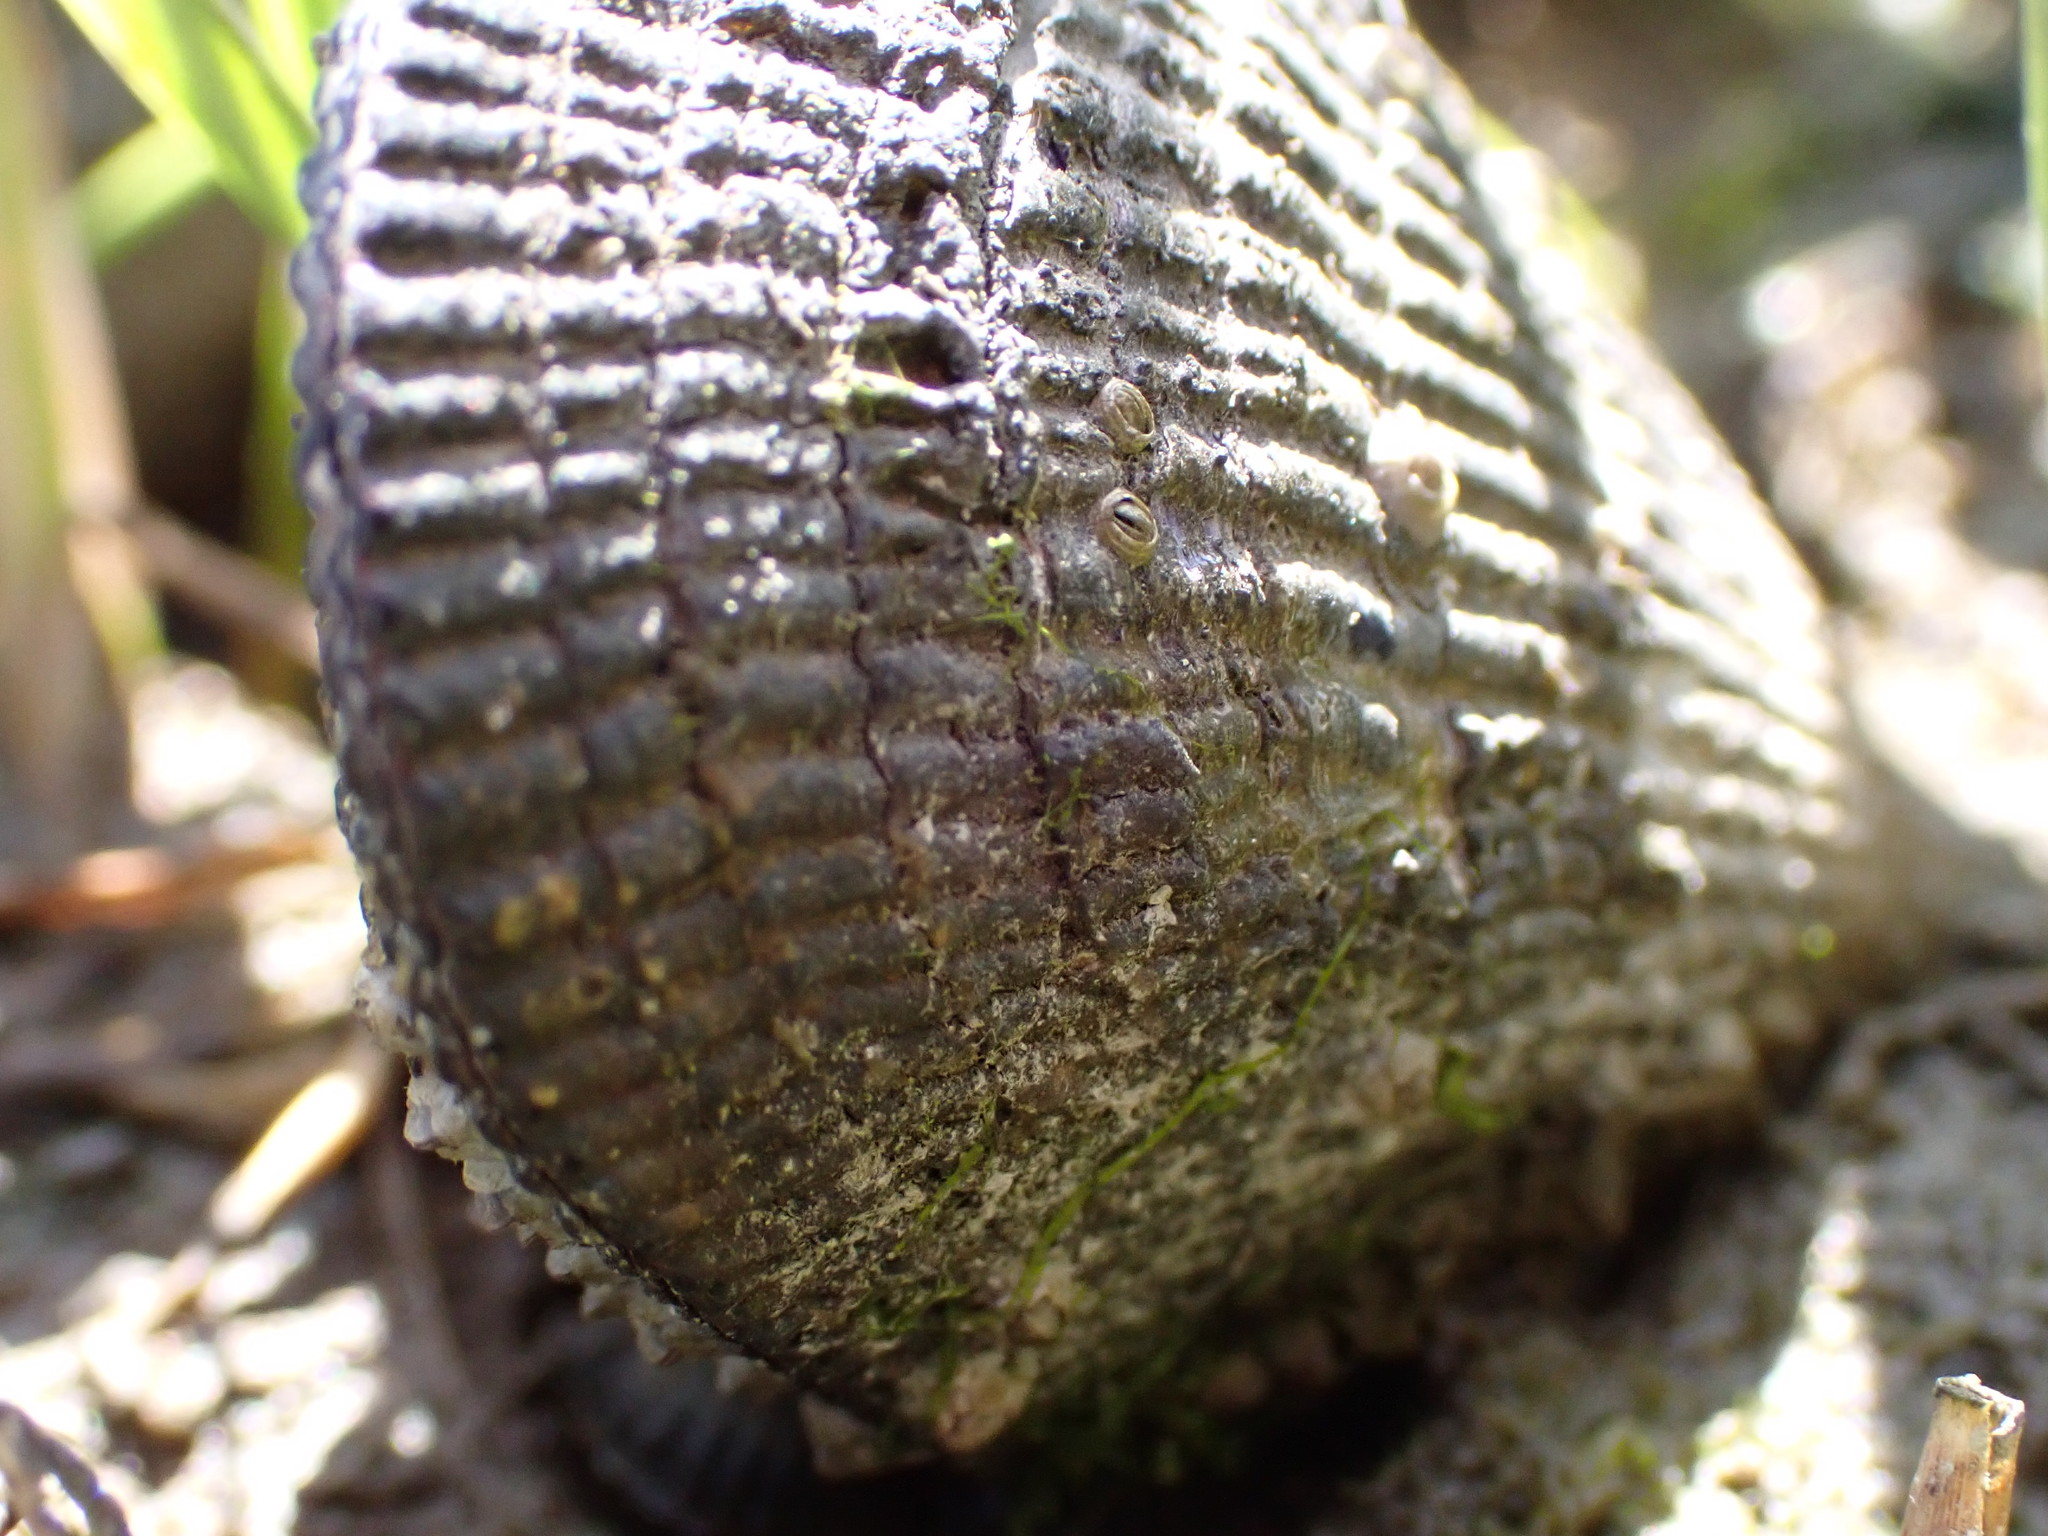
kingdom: Animalia
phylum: Mollusca
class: Bivalvia
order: Mytilida
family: Mytilidae
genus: Geukensia
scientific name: Geukensia demissa
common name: Ribbed mussel
